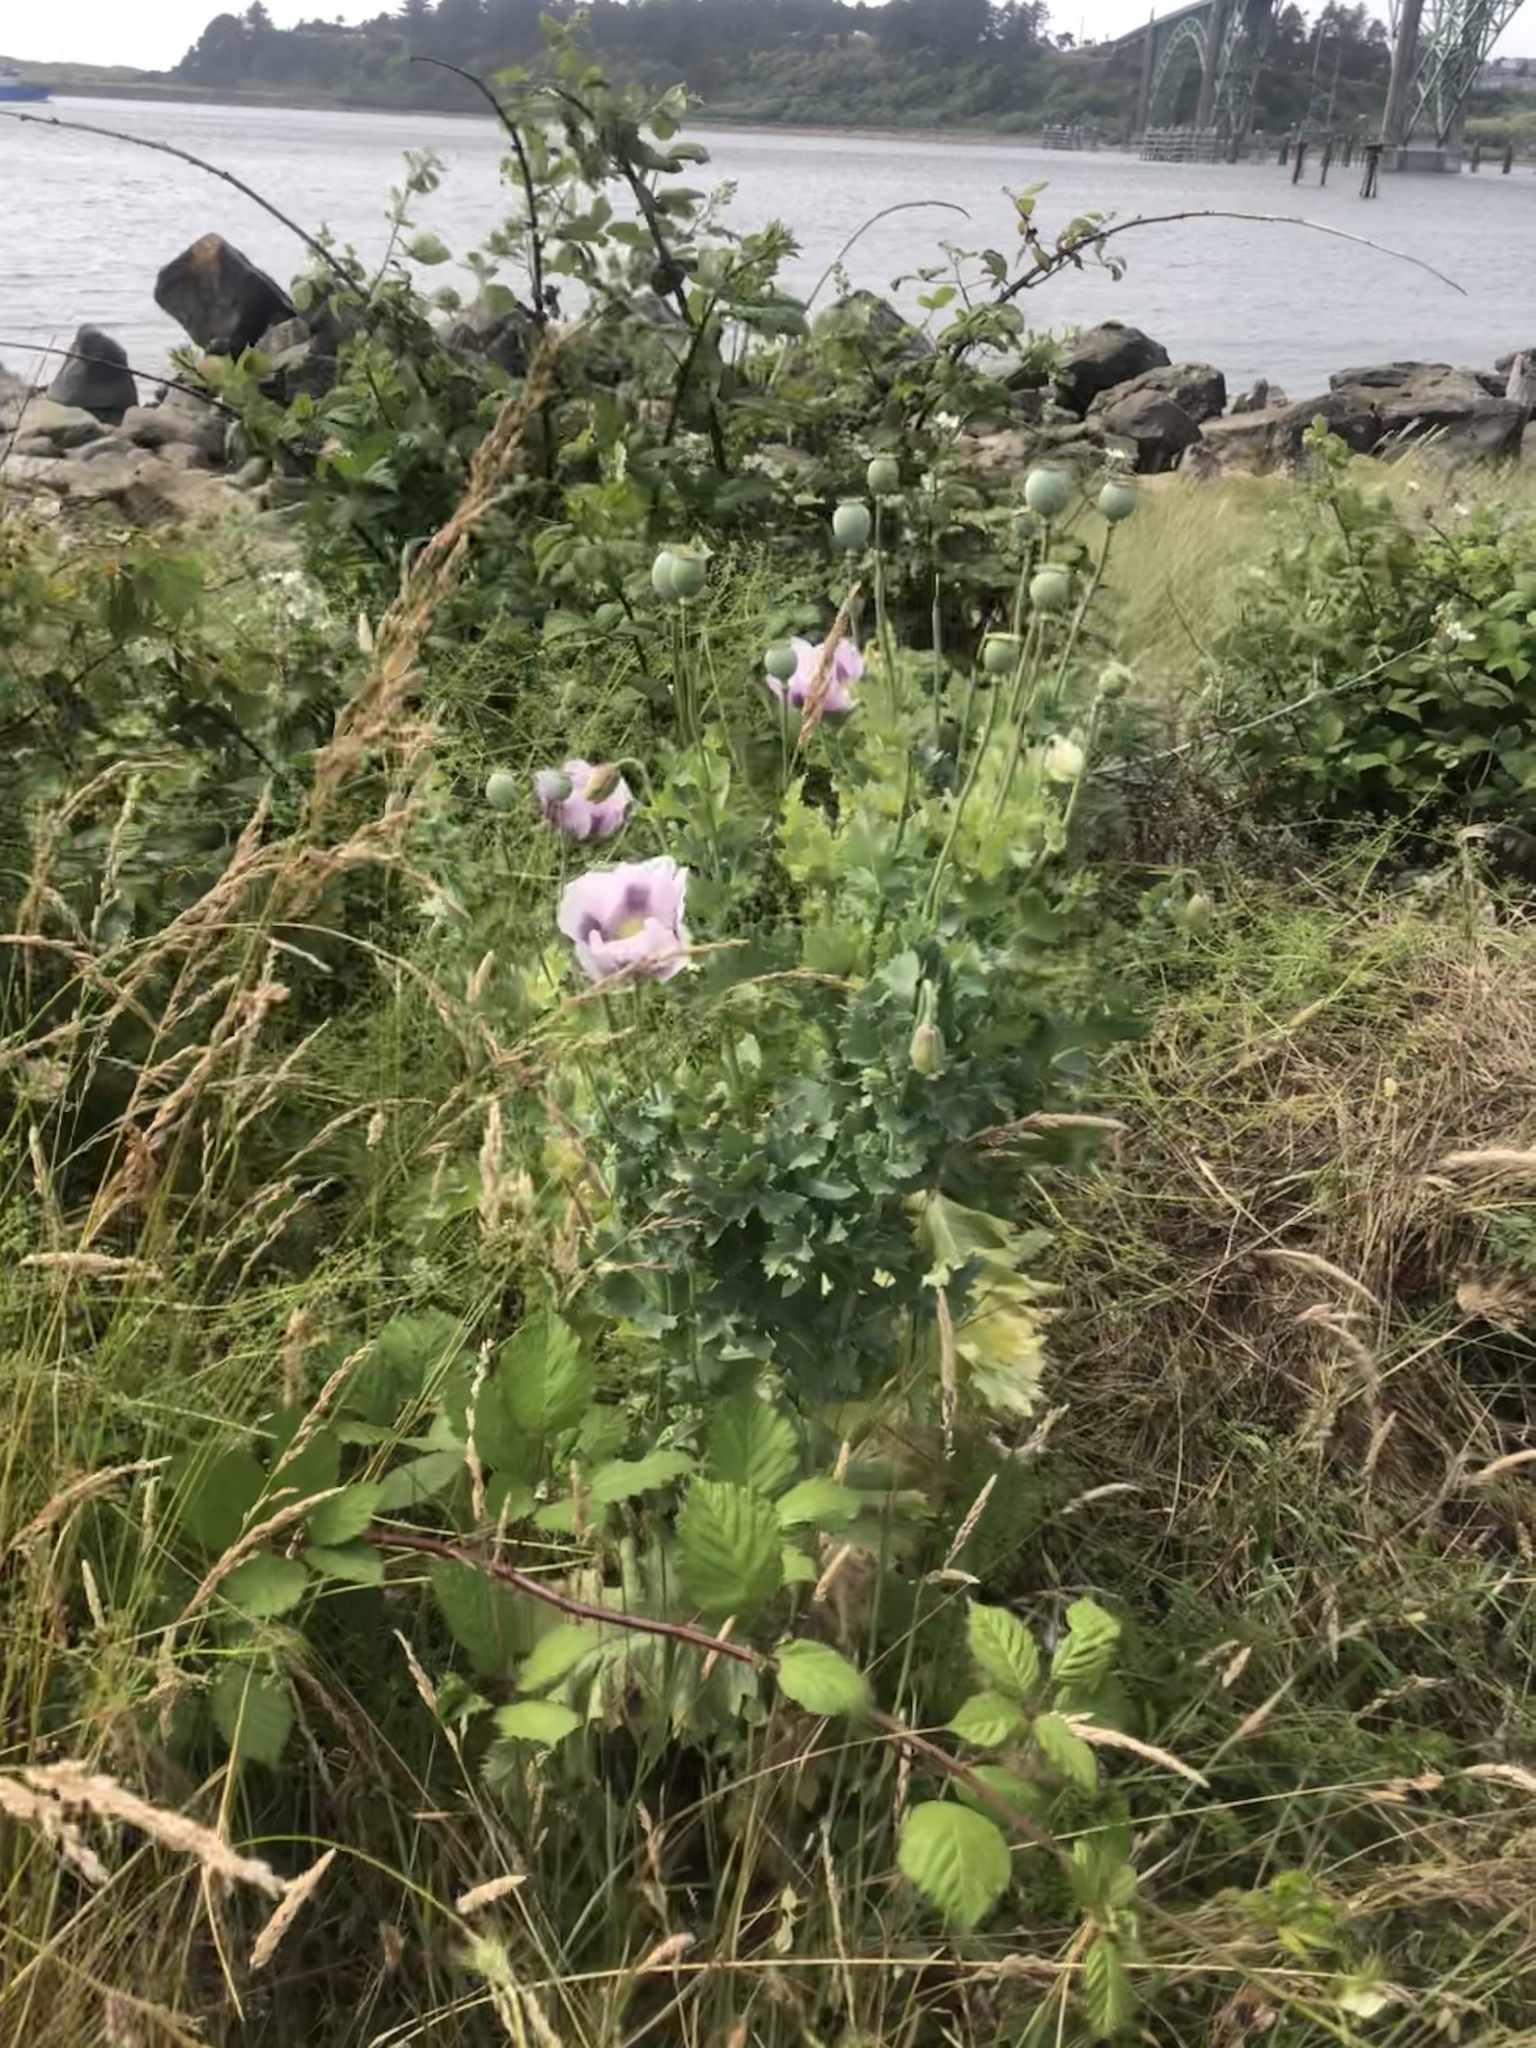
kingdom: Plantae
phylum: Tracheophyta
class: Magnoliopsida
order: Ranunculales
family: Papaveraceae
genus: Papaver
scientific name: Papaver somniferum
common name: Opium poppy
